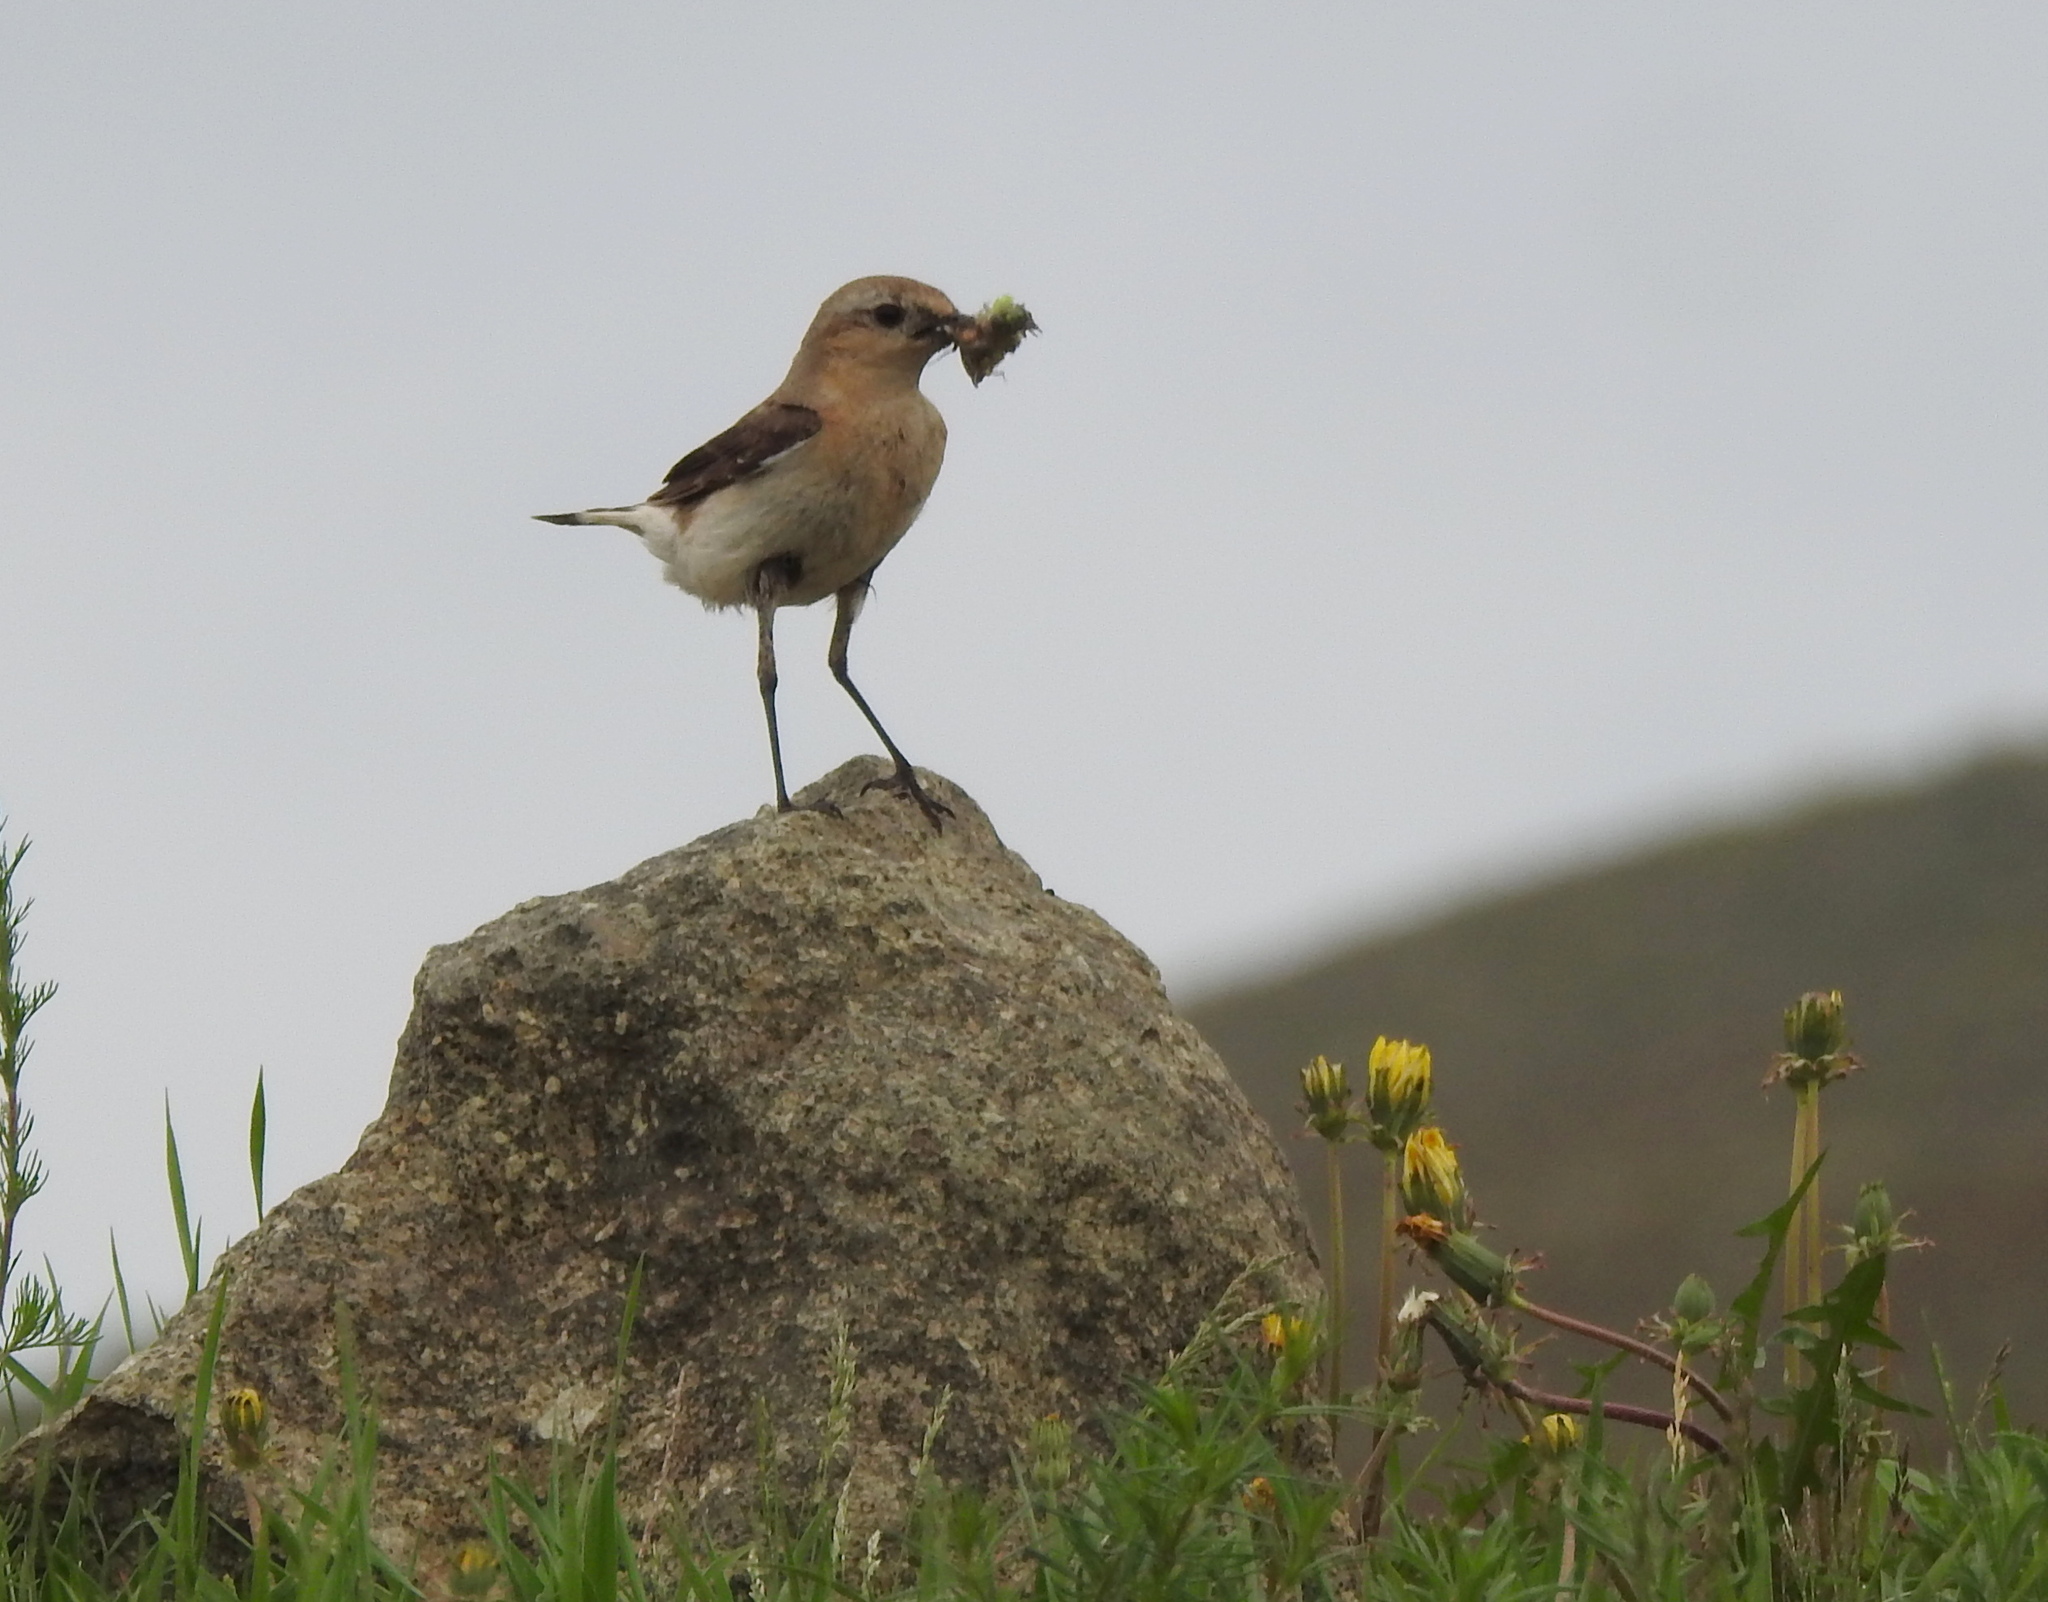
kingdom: Animalia
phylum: Chordata
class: Aves
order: Passeriformes
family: Muscicapidae
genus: Oenanthe
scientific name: Oenanthe oenanthe
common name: Northern wheatear
